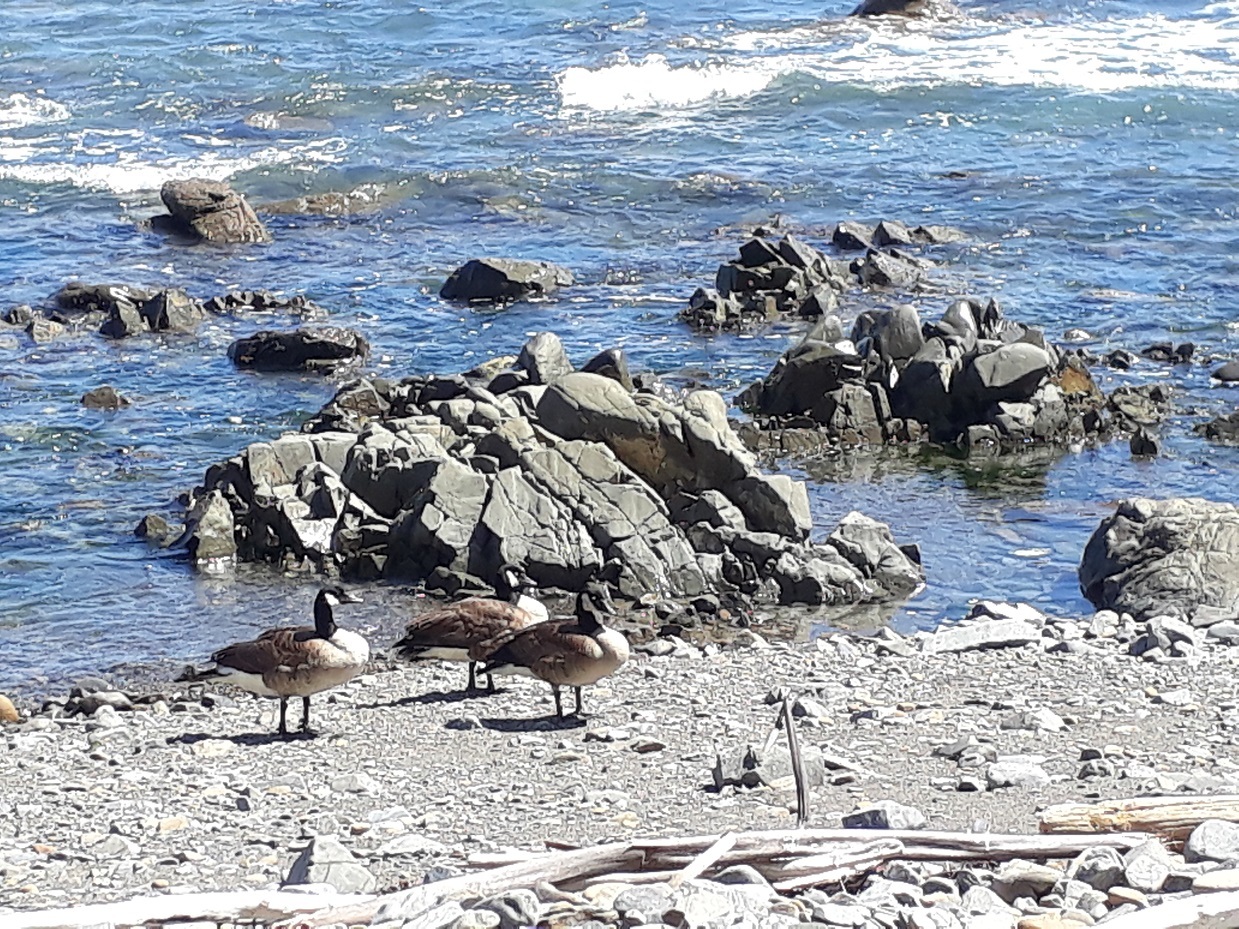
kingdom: Animalia
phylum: Chordata
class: Aves
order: Anseriformes
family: Anatidae
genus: Branta
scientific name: Branta canadensis
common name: Canada goose
